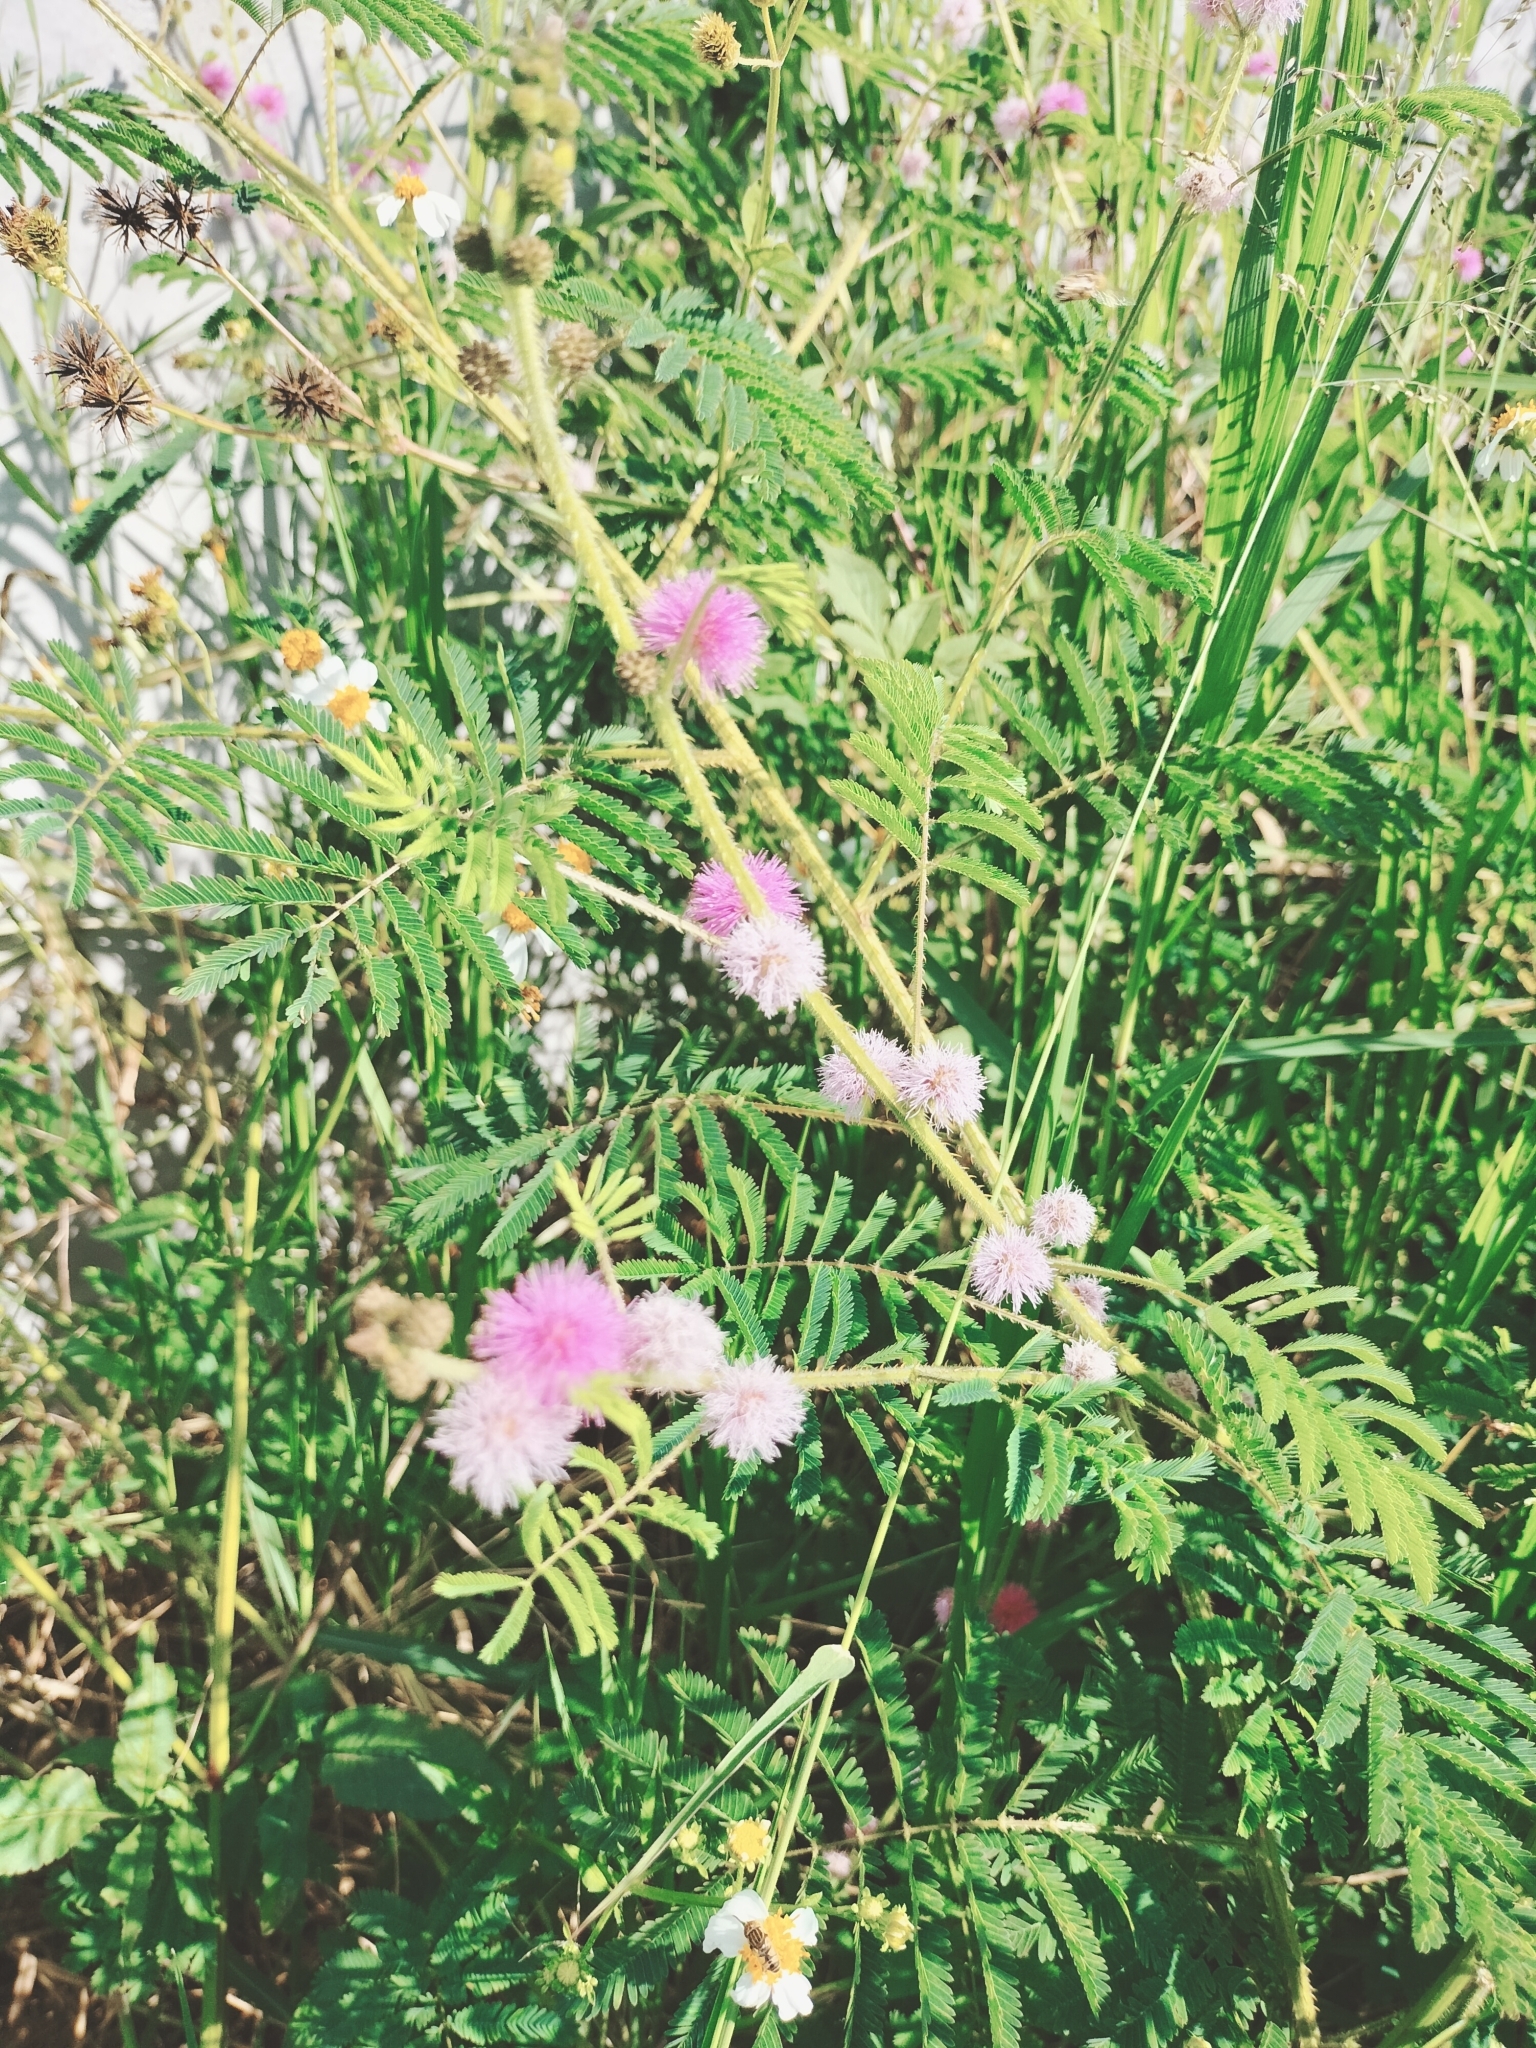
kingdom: Plantae
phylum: Tracheophyta
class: Magnoliopsida
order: Fabales
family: Fabaceae
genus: Mimosa
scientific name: Mimosa diplotricha
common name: Giant sensitive-plant
